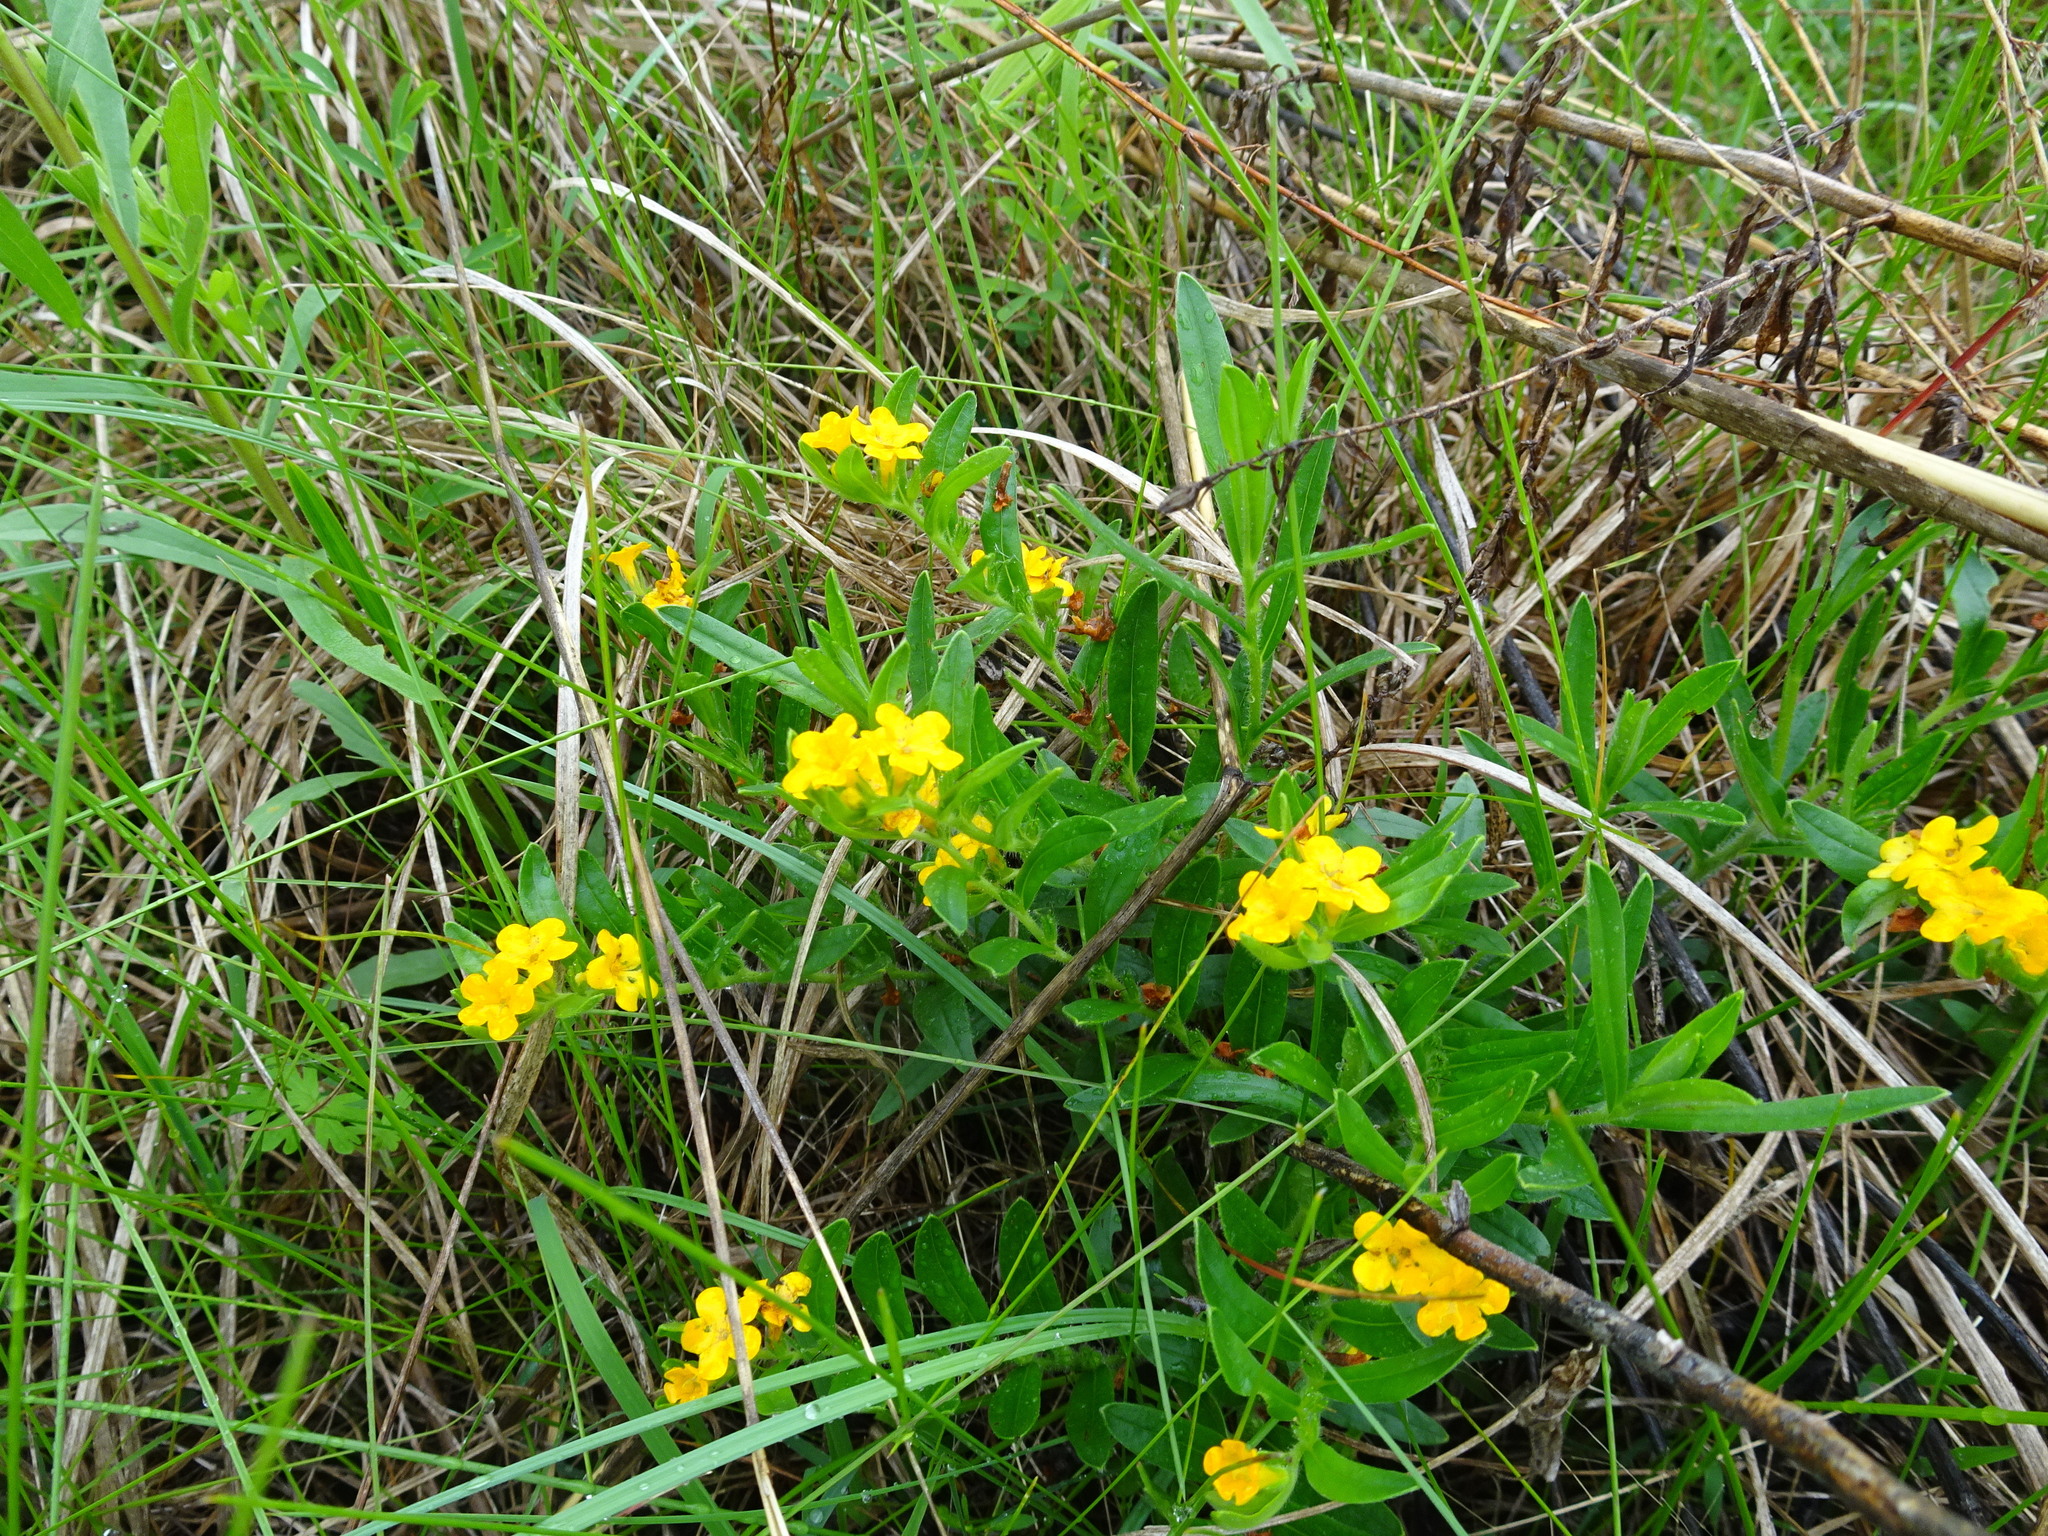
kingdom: Plantae
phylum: Tracheophyta
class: Magnoliopsida
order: Boraginales
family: Boraginaceae
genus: Lithospermum
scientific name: Lithospermum canescens
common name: Hoary puccoon
